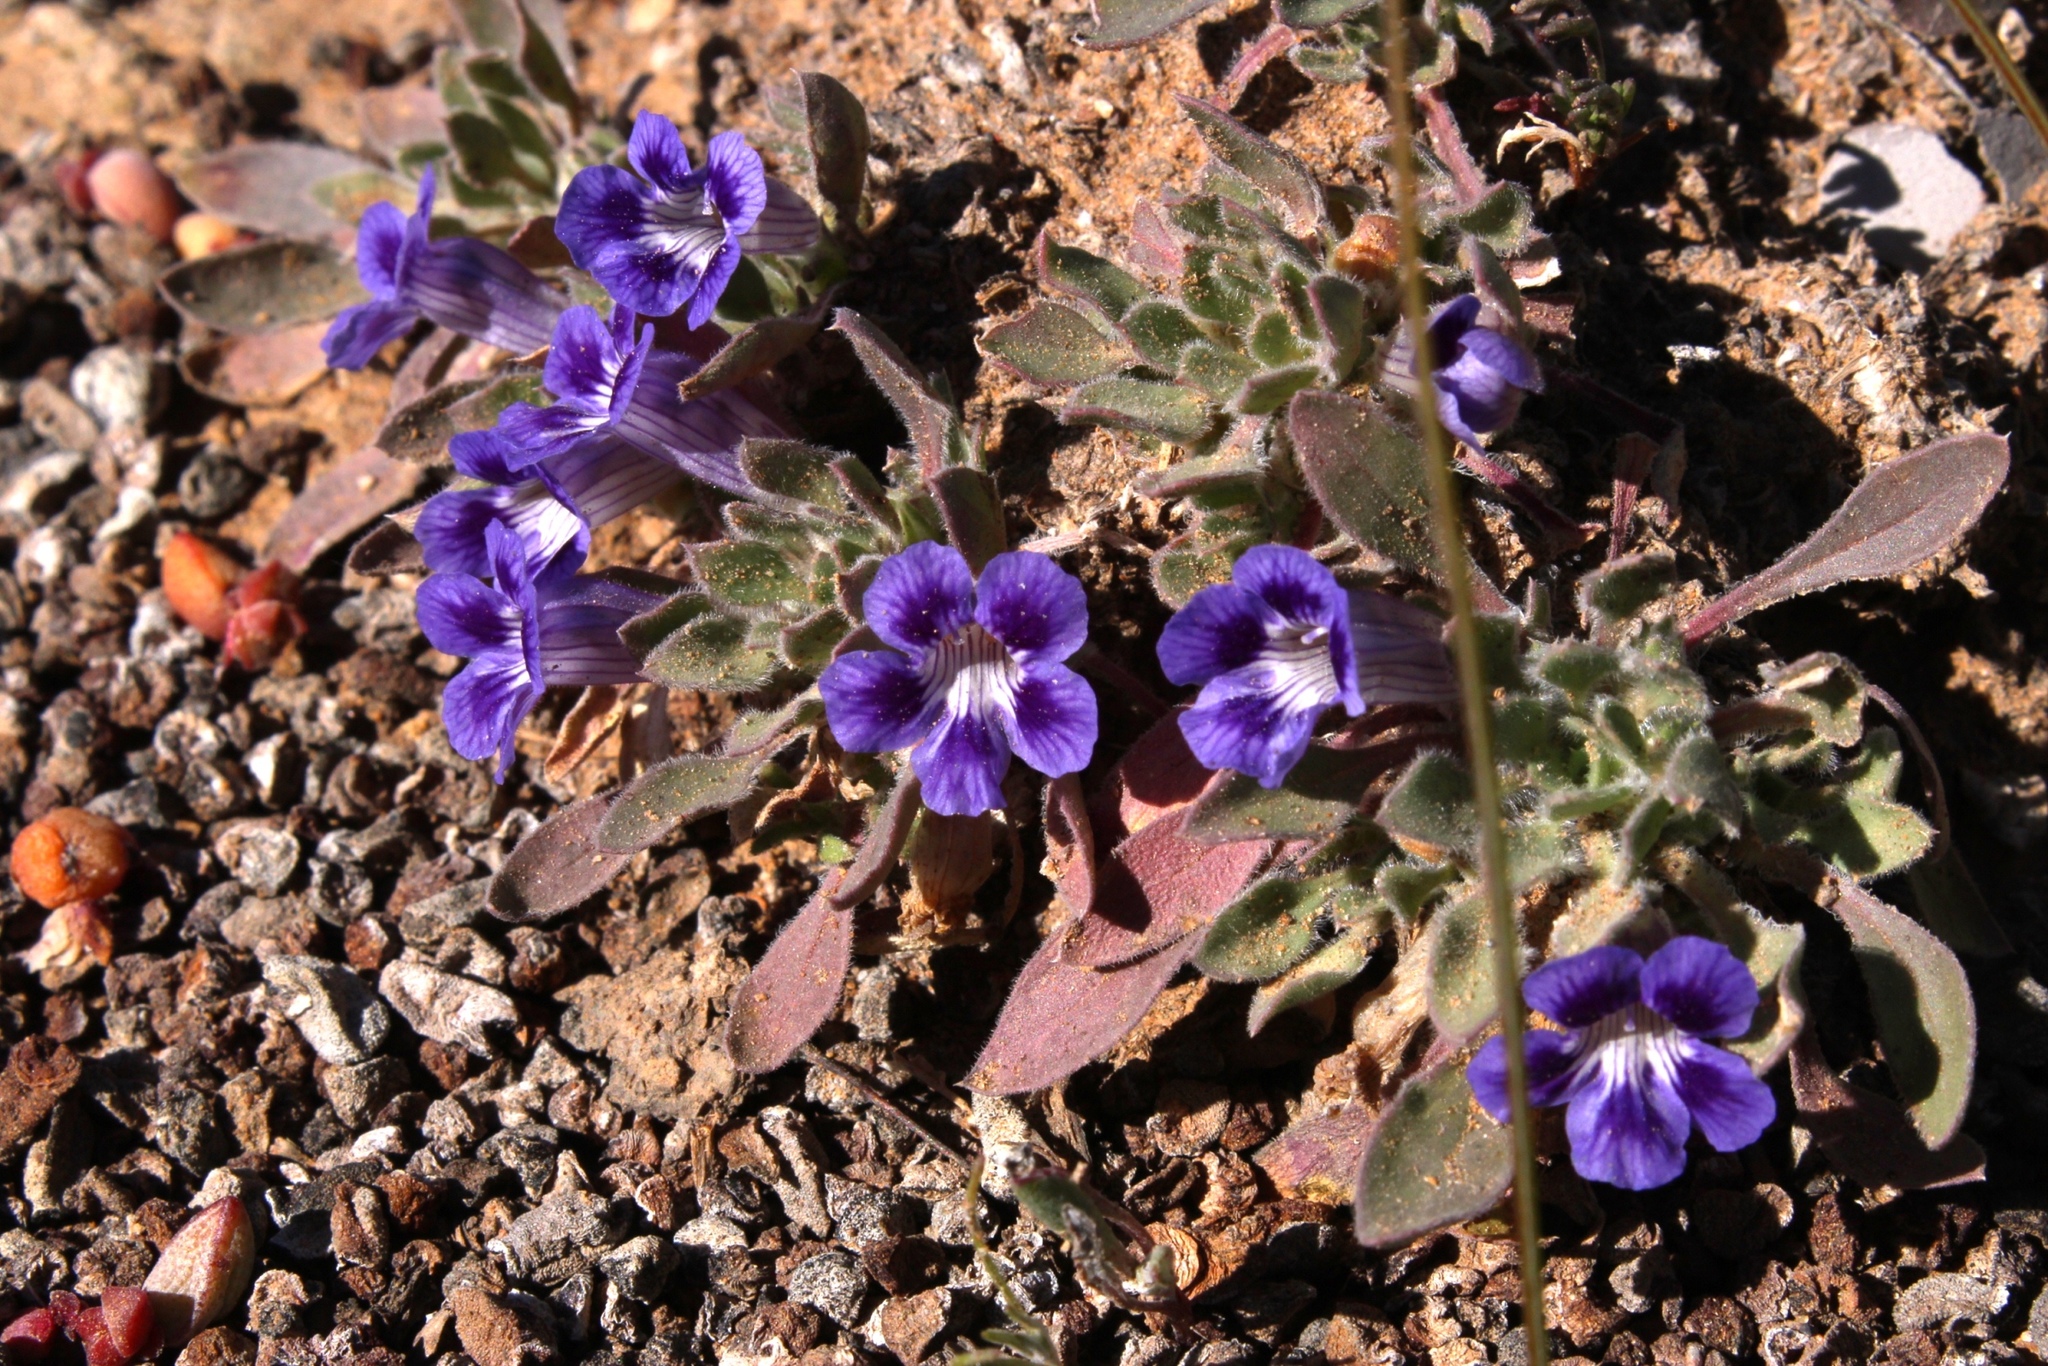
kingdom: Plantae
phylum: Tracheophyta
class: Magnoliopsida
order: Lamiales
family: Scrophulariaceae
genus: Aptosimum
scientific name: Aptosimum indivisum
